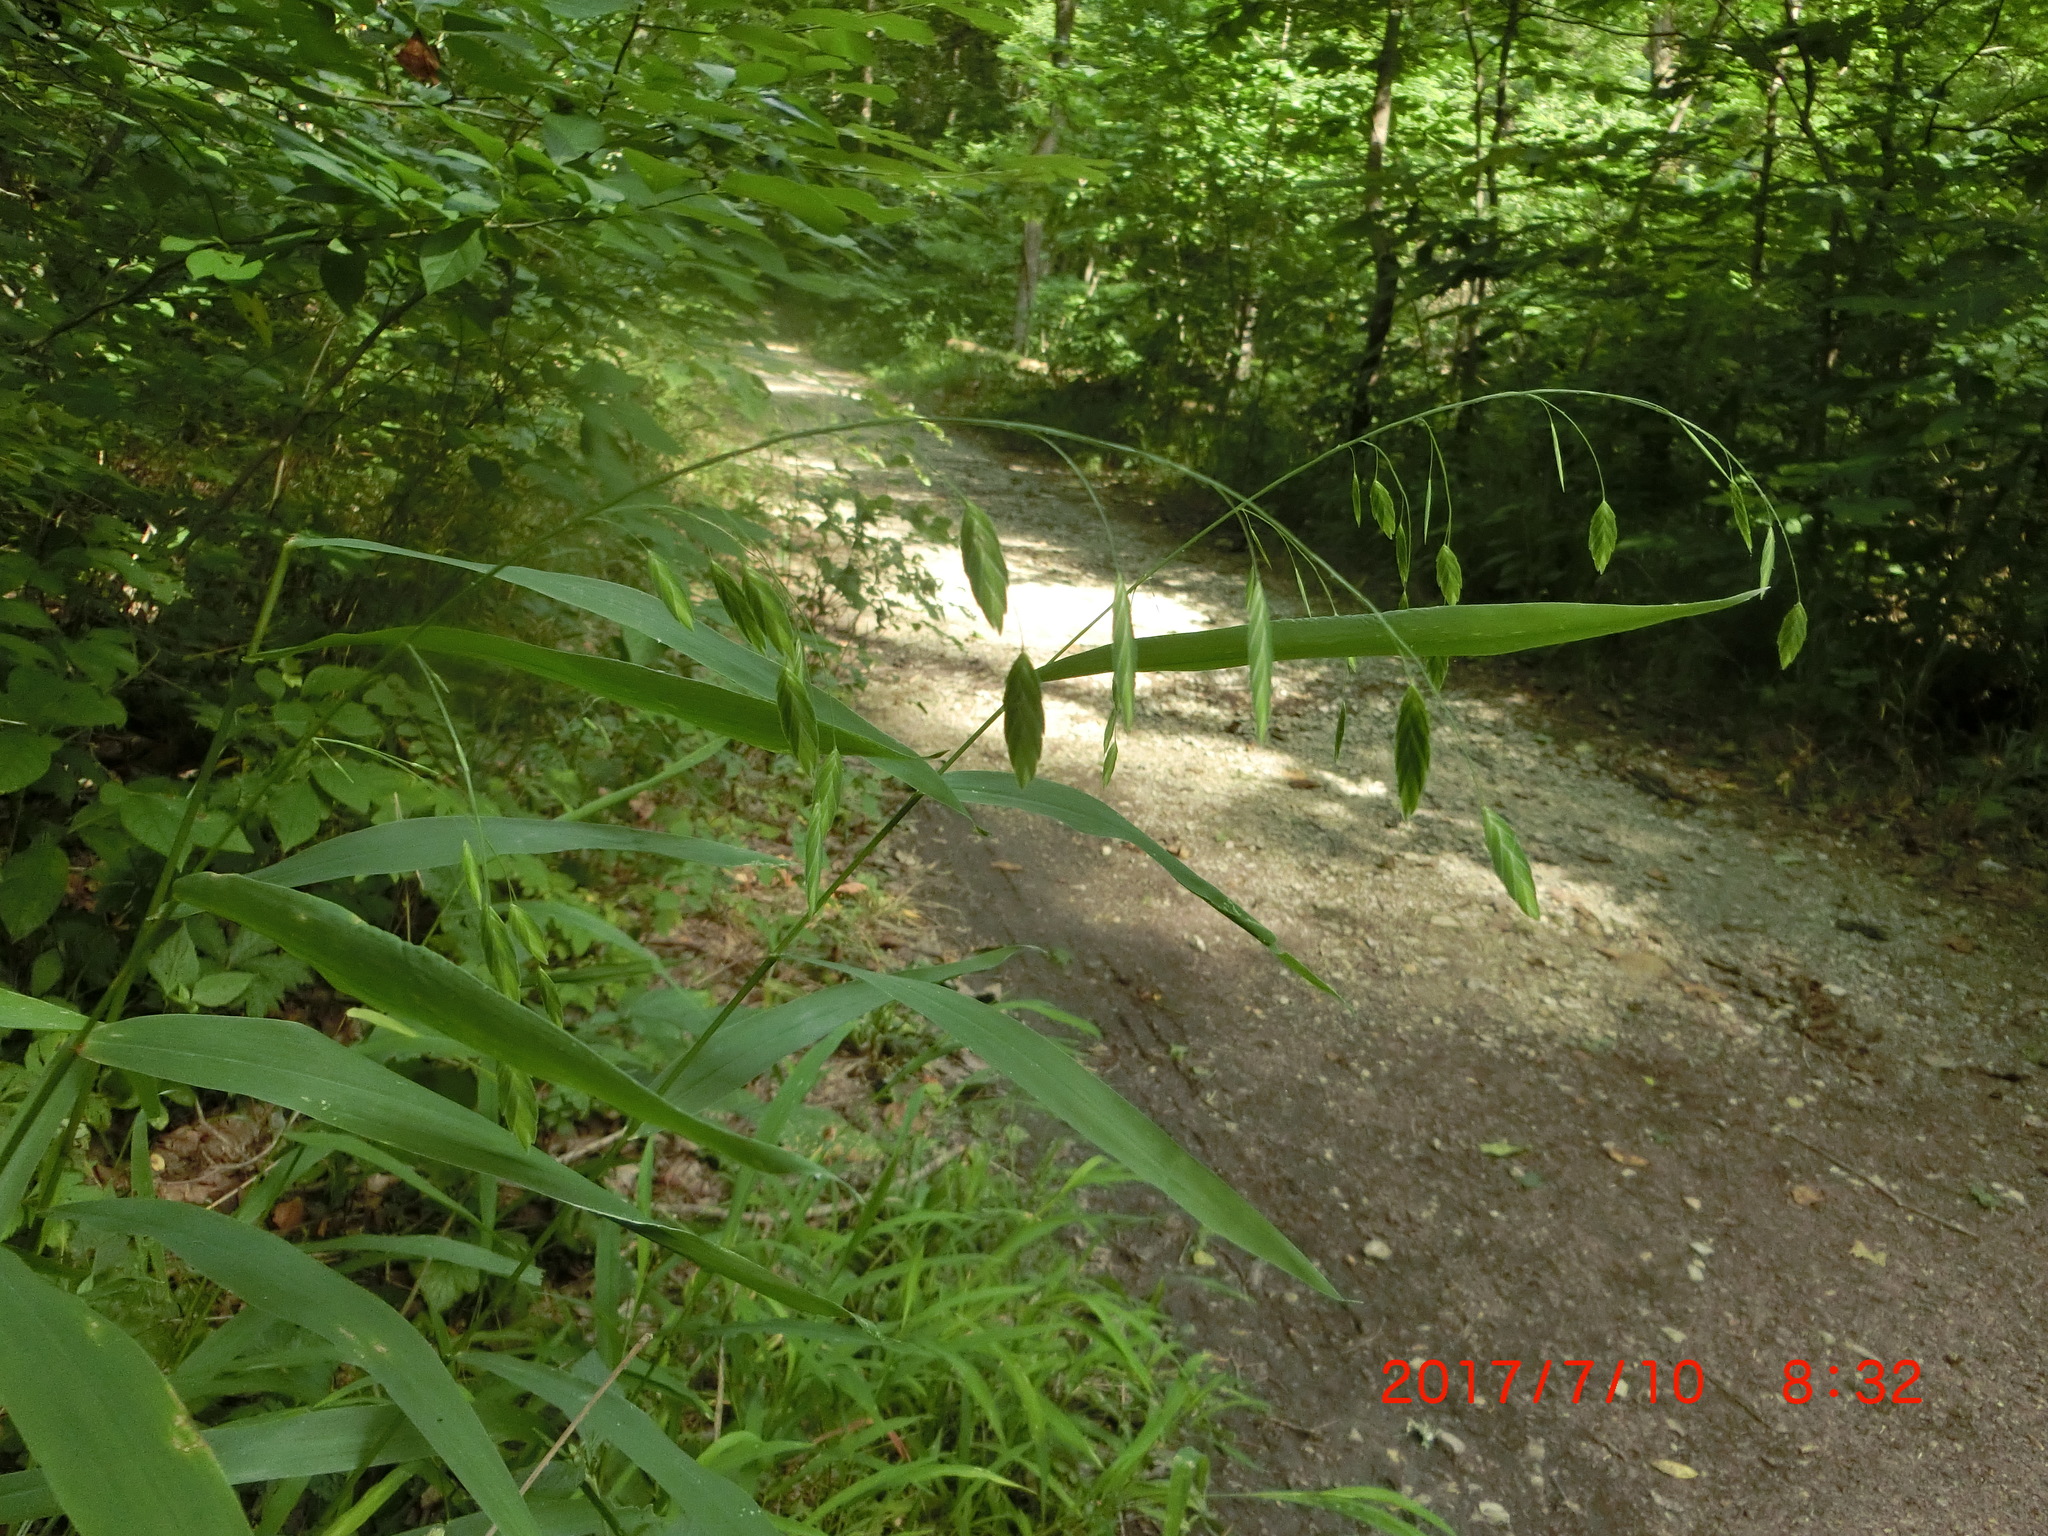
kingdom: Plantae
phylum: Tracheophyta
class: Liliopsida
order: Poales
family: Poaceae
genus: Chasmanthium
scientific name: Chasmanthium latifolium
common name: Broad-leaved chasmanthium
